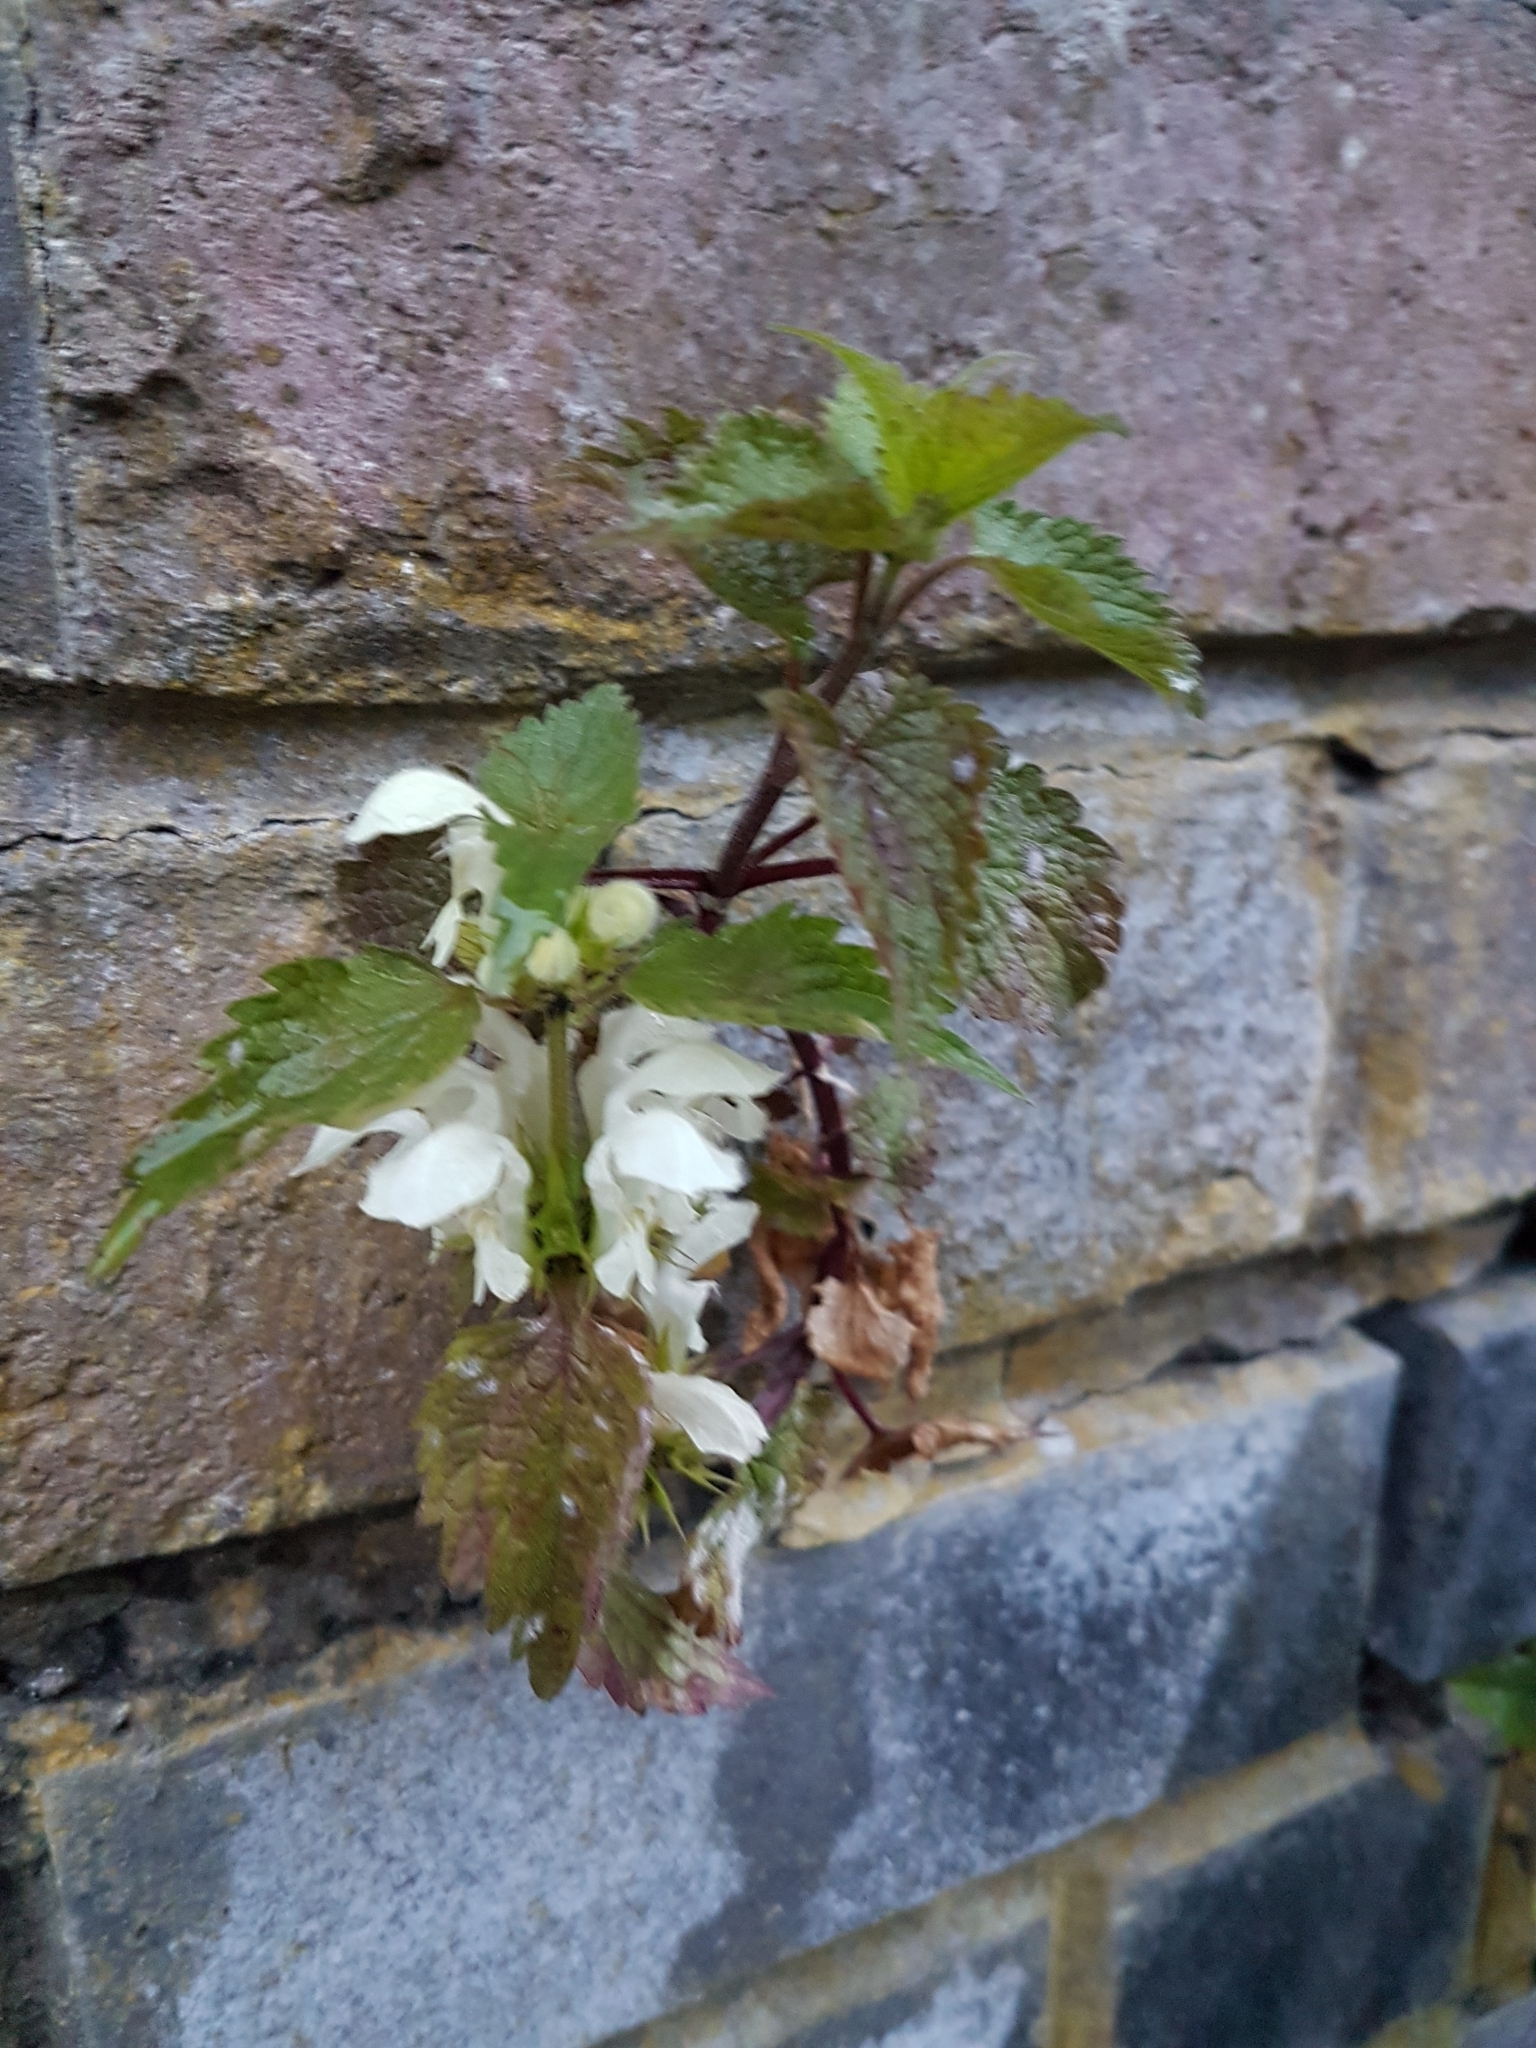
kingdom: Plantae
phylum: Tracheophyta
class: Magnoliopsida
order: Lamiales
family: Lamiaceae
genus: Lamium
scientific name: Lamium album
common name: White dead-nettle
